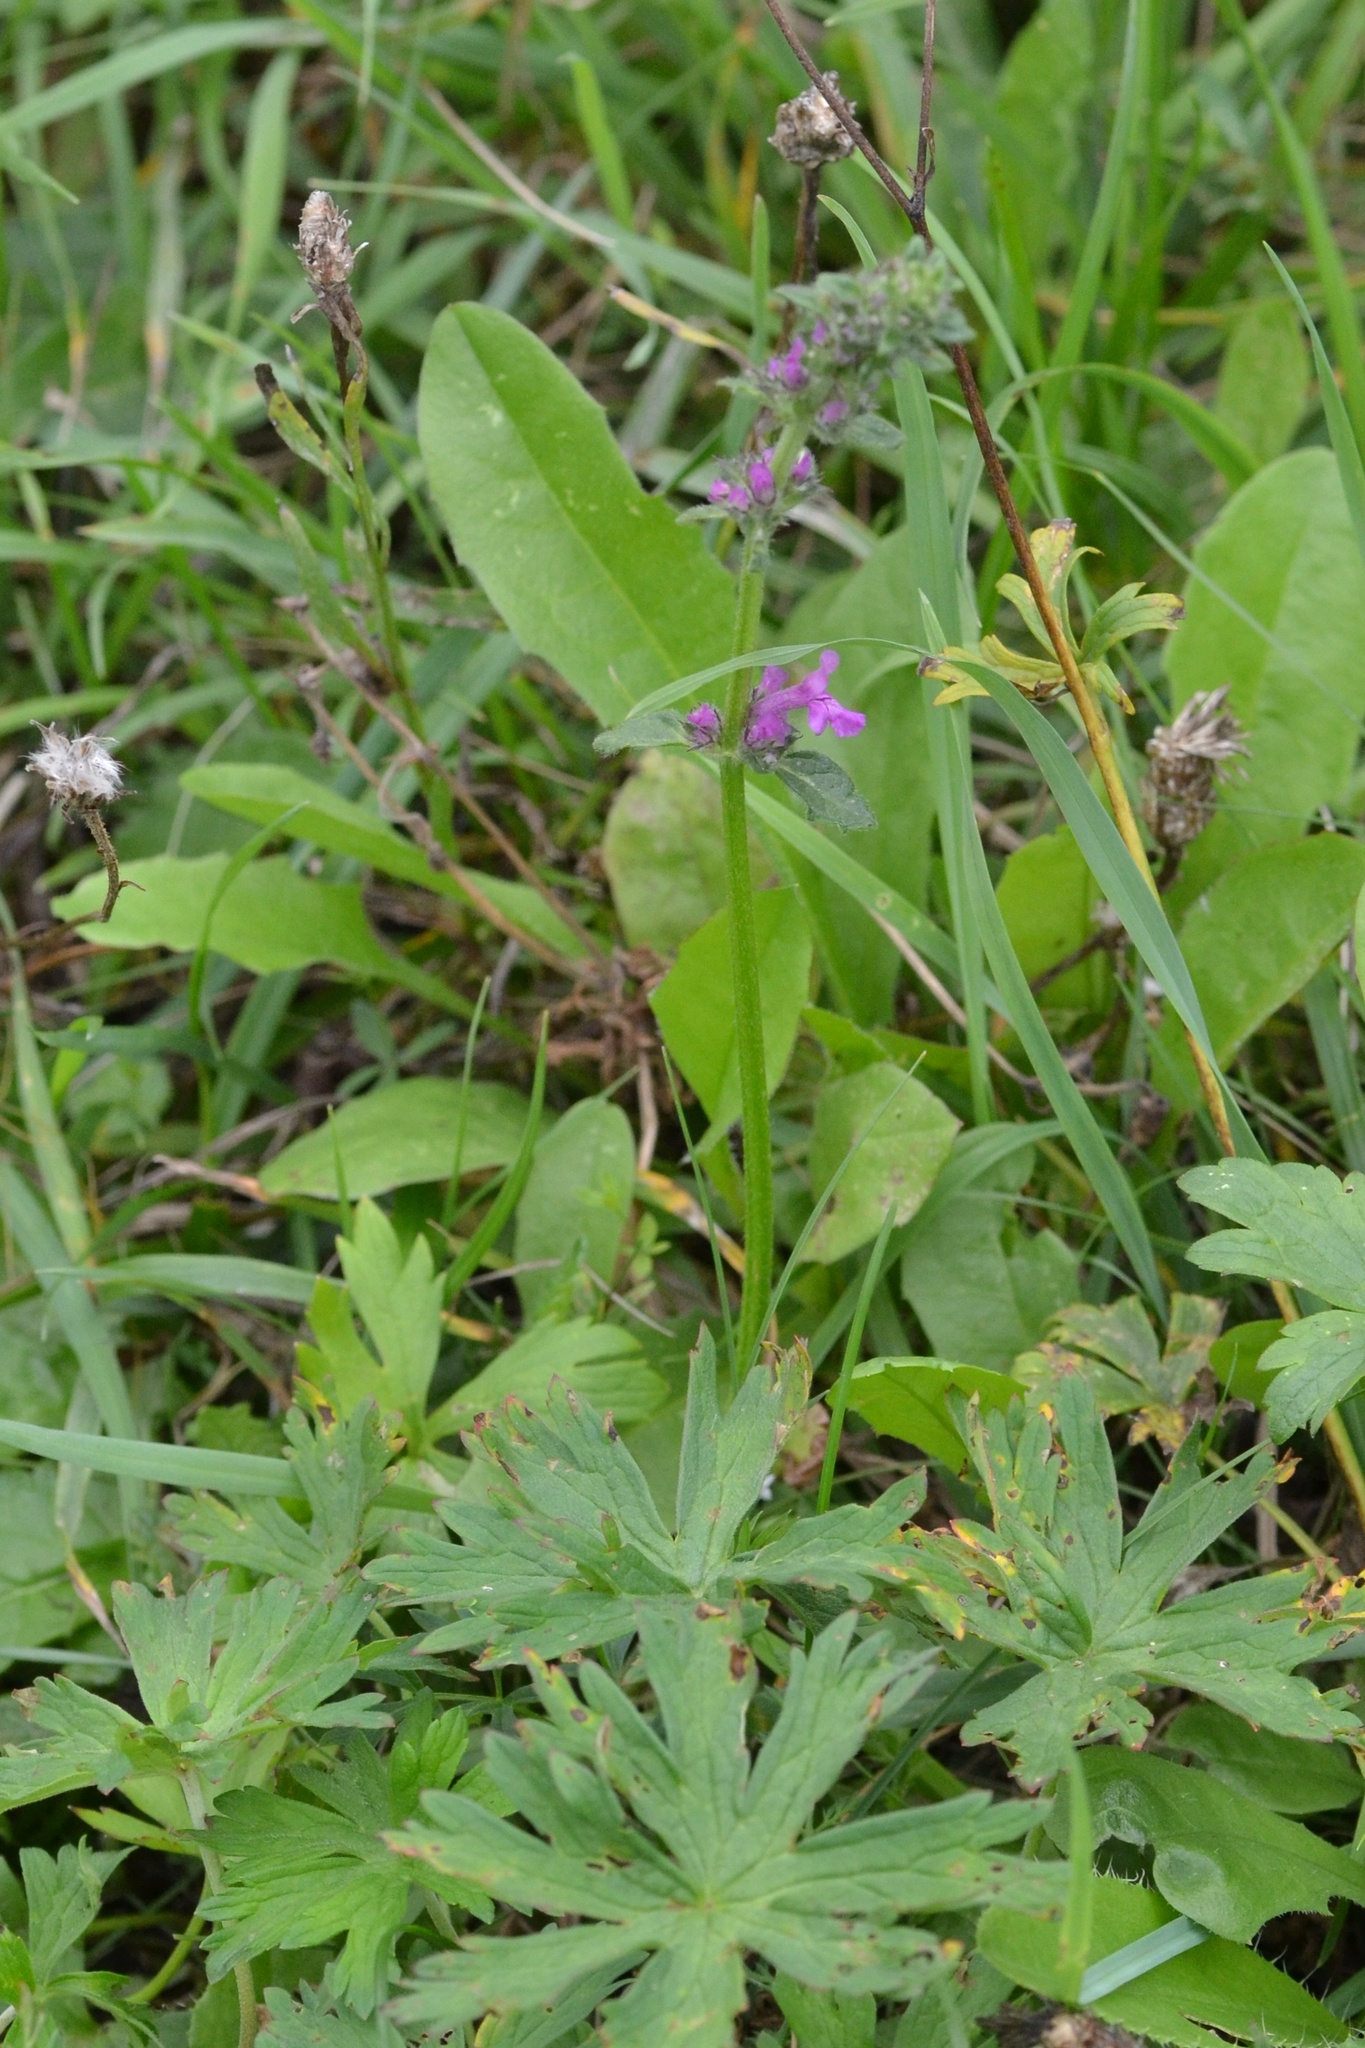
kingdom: Plantae
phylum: Tracheophyta
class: Magnoliopsida
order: Lamiales
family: Lamiaceae
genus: Betonica
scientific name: Betonica officinalis
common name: Bishop's-wort
